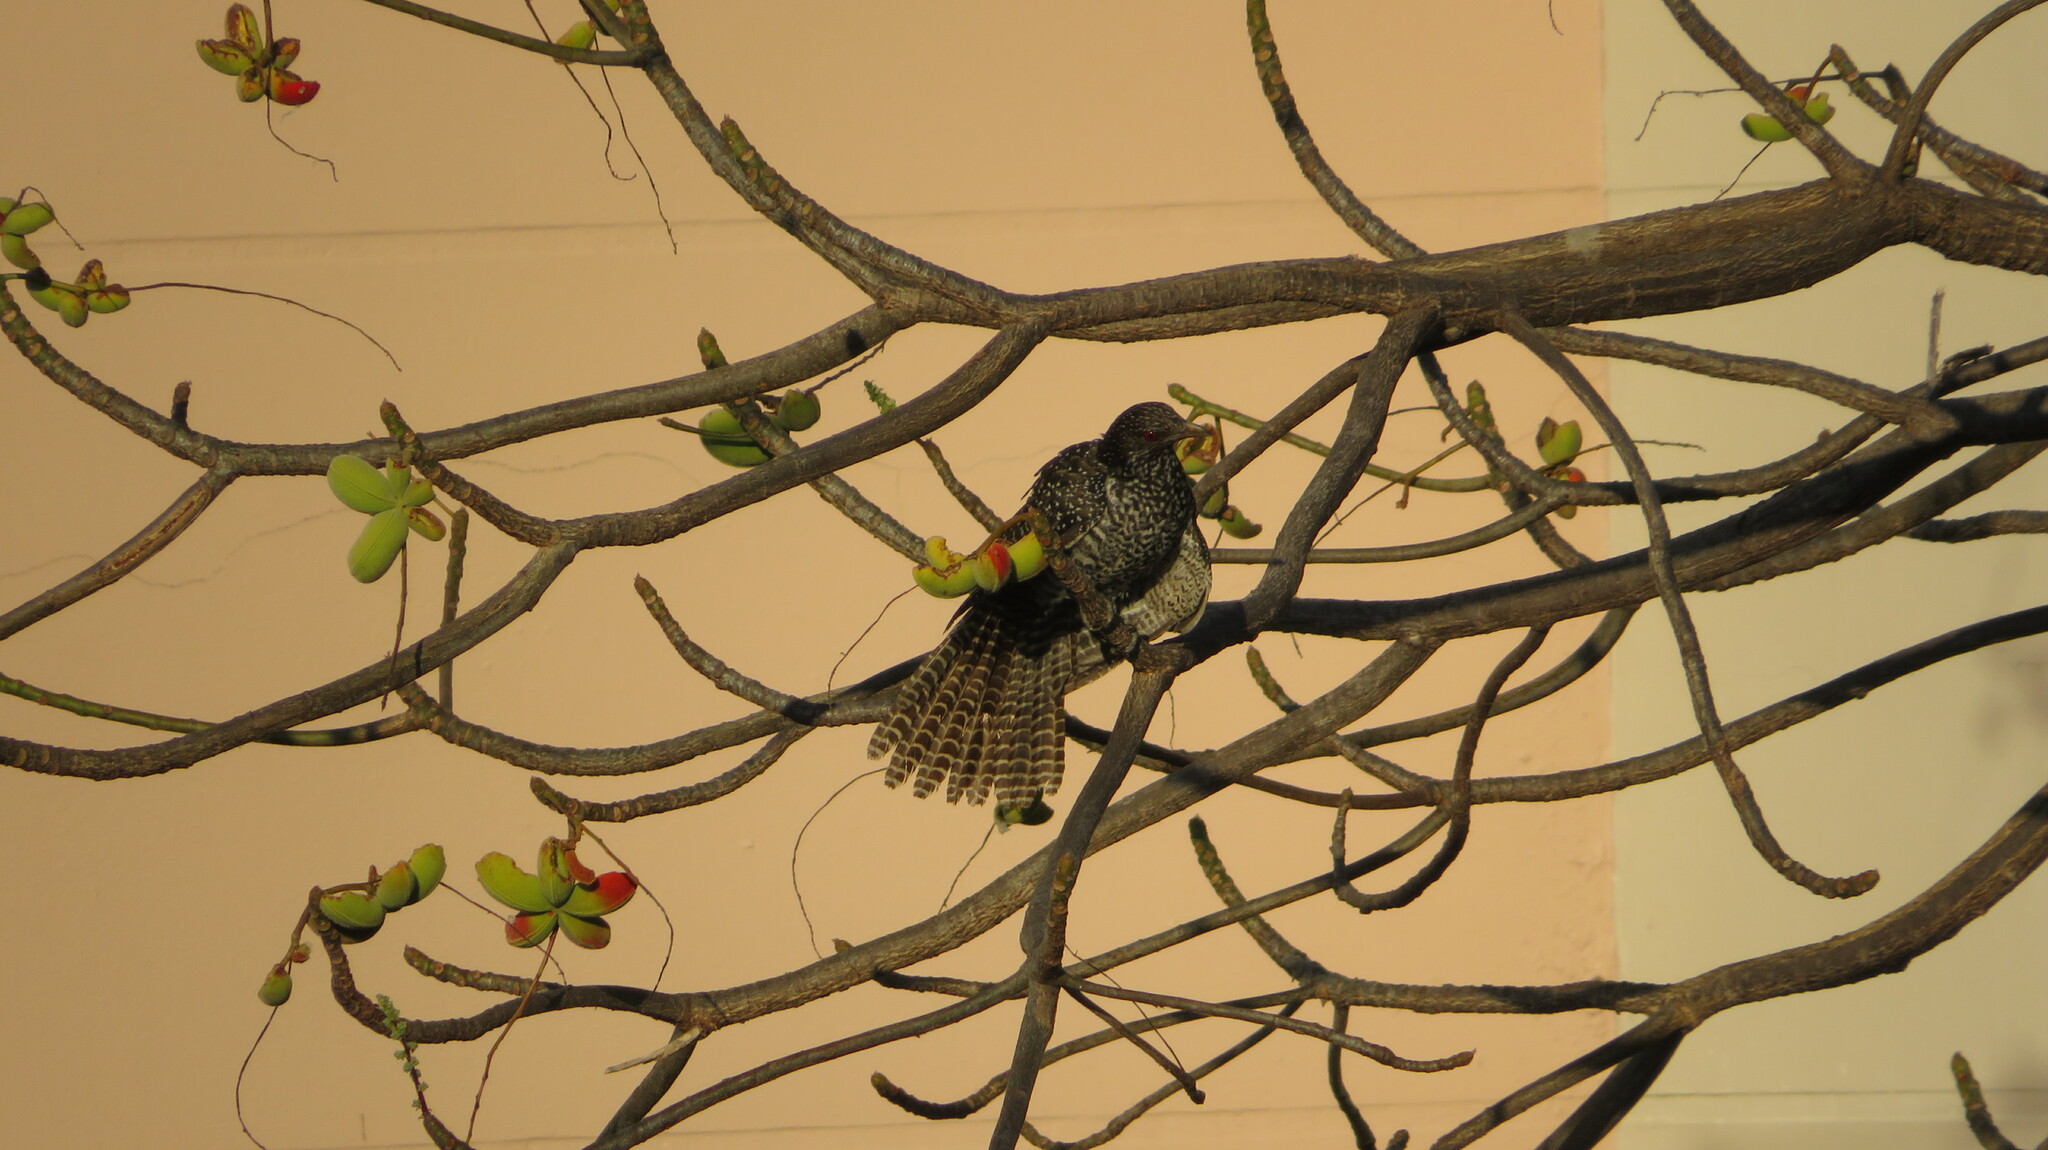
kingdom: Animalia
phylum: Chordata
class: Aves
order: Cuculiformes
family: Cuculidae
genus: Eudynamys
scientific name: Eudynamys scolopaceus
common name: Asian koel
